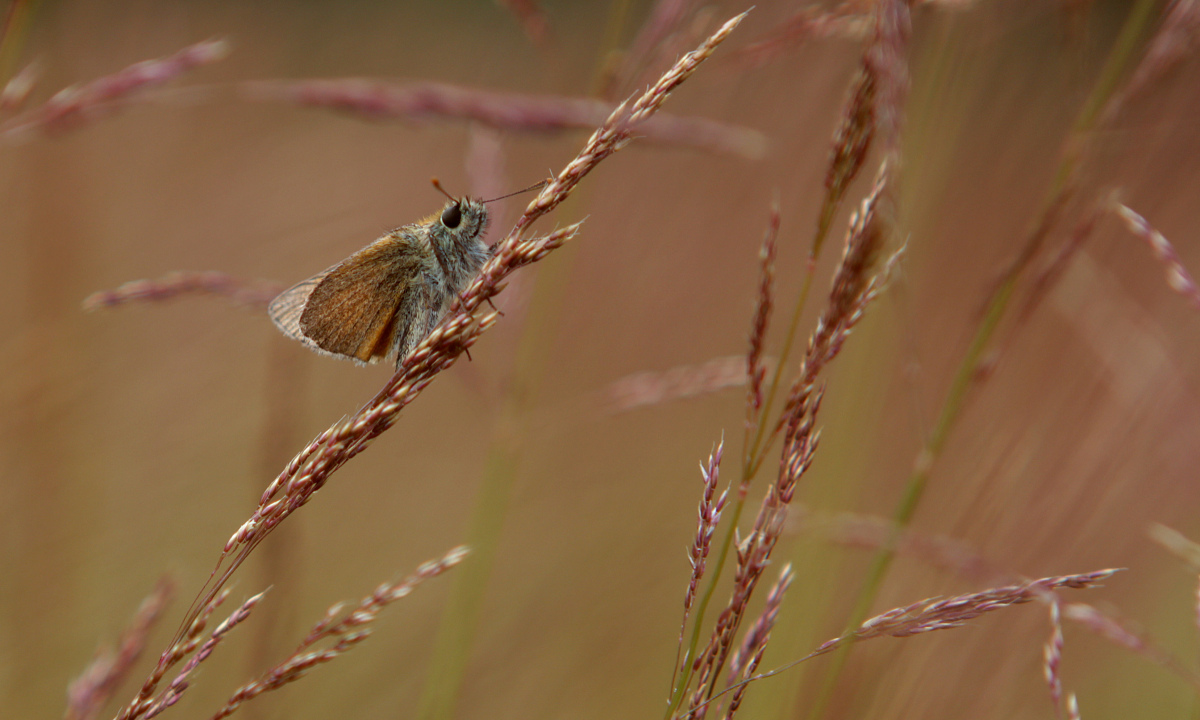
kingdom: Animalia
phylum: Arthropoda
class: Insecta
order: Lepidoptera
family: Hesperiidae
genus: Thymelicus
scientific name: Thymelicus sylvestris
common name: Small skipper
